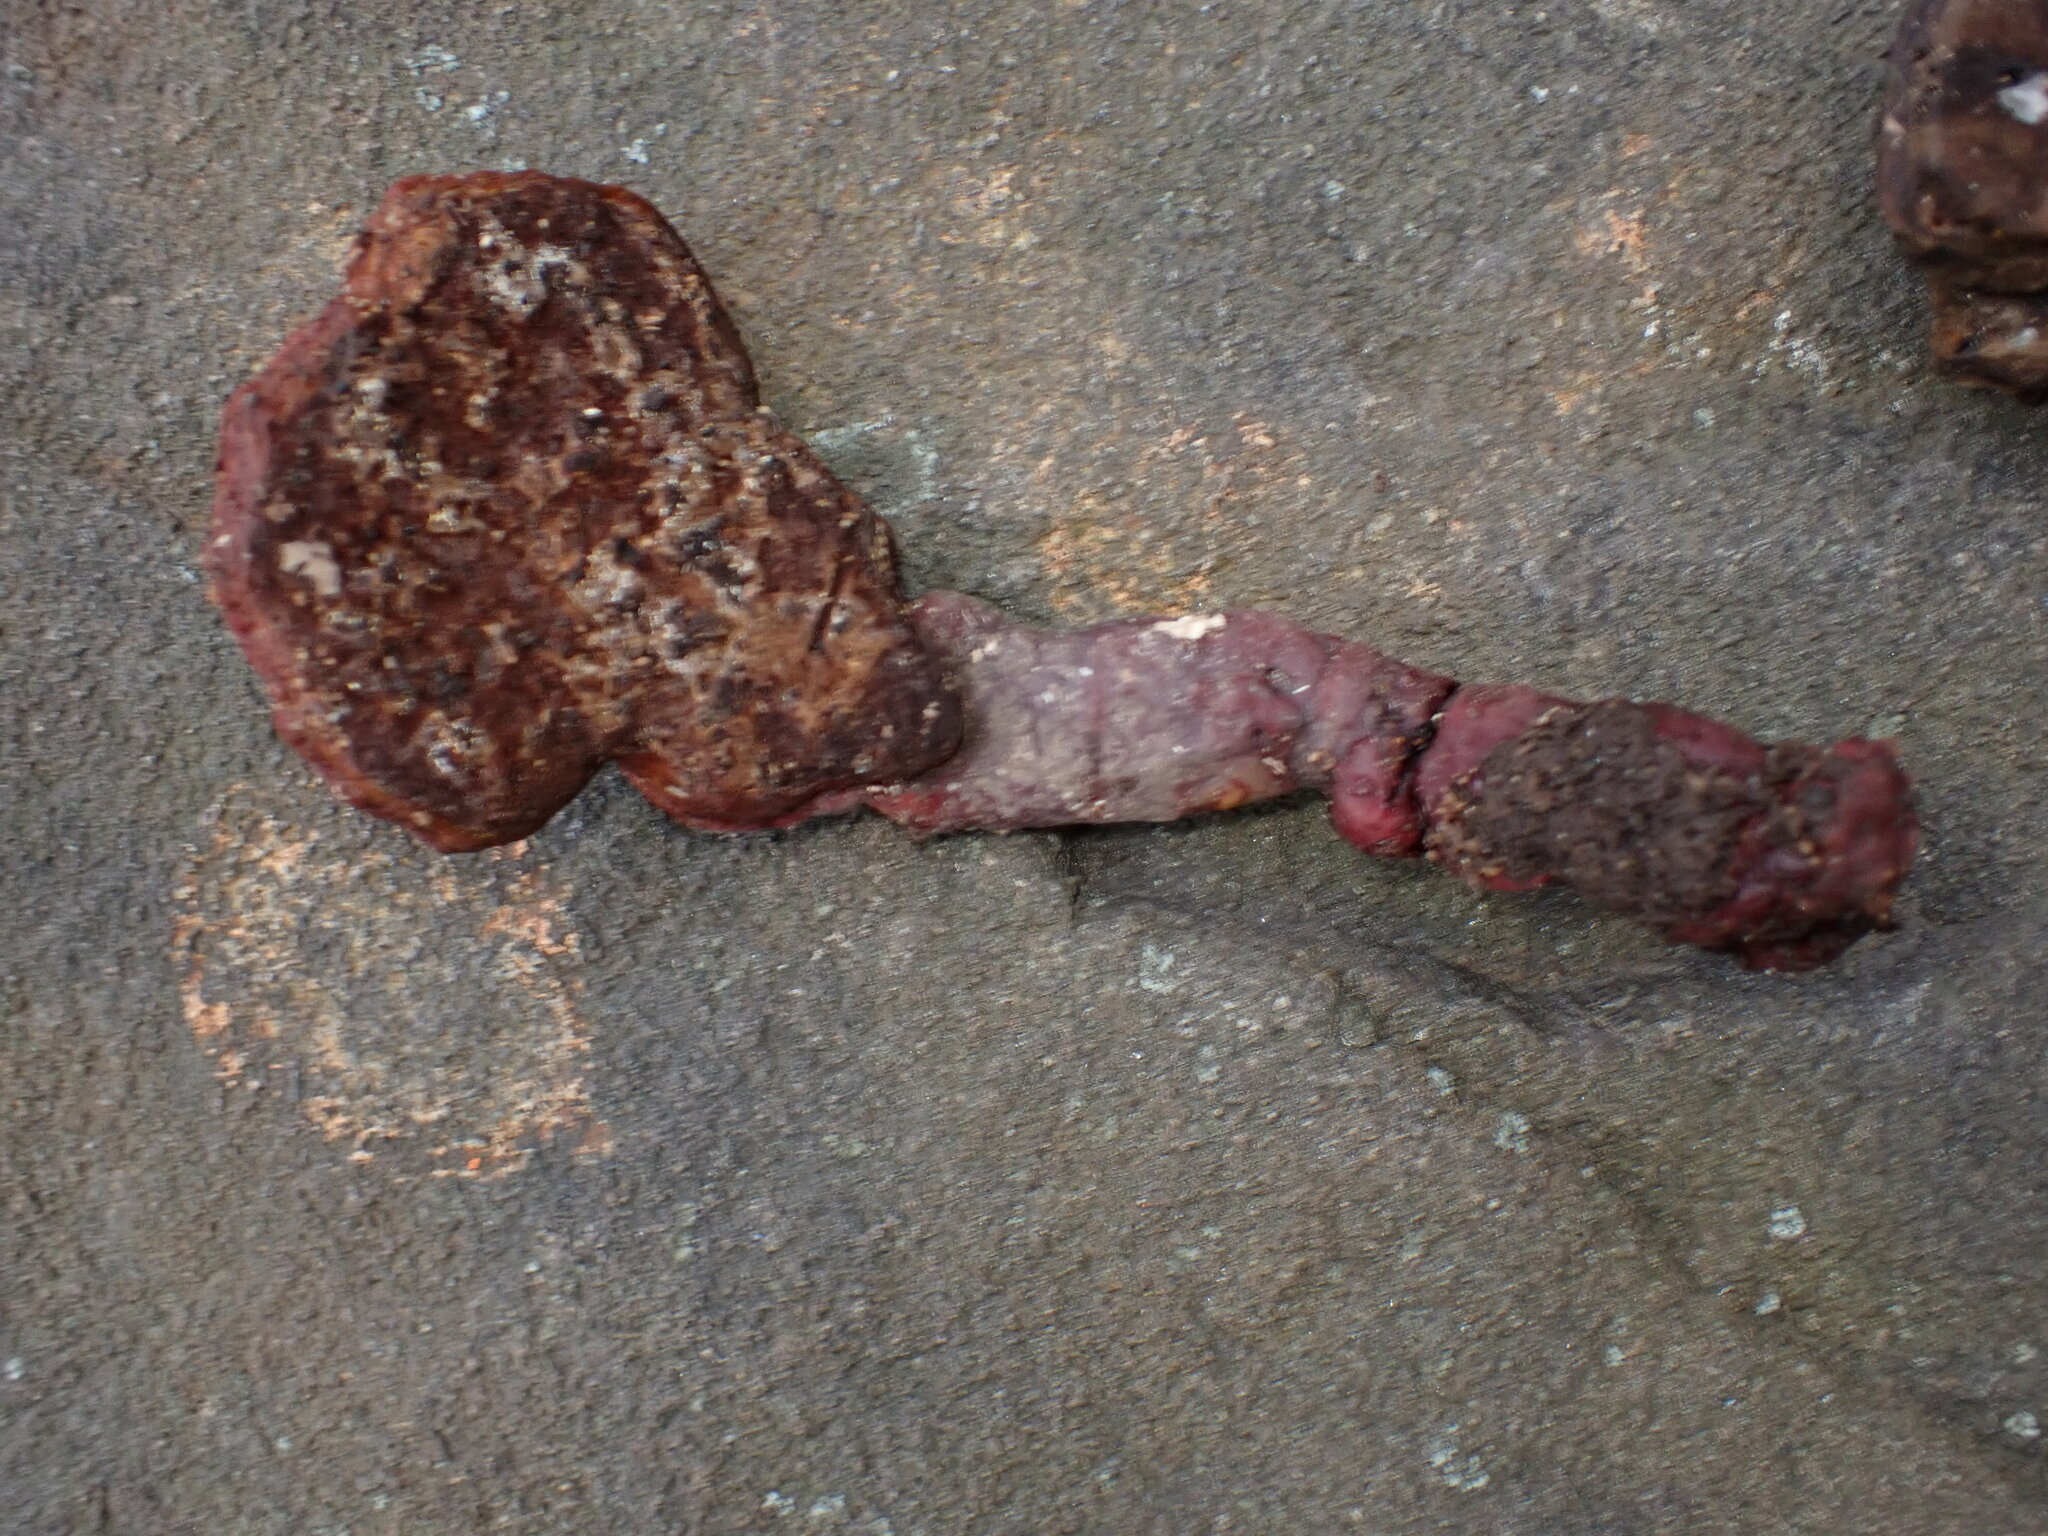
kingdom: Fungi
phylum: Basidiomycota
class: Agaricomycetes
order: Polyporales
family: Polyporaceae
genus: Ganoderma
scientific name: Ganoderma curtisii
